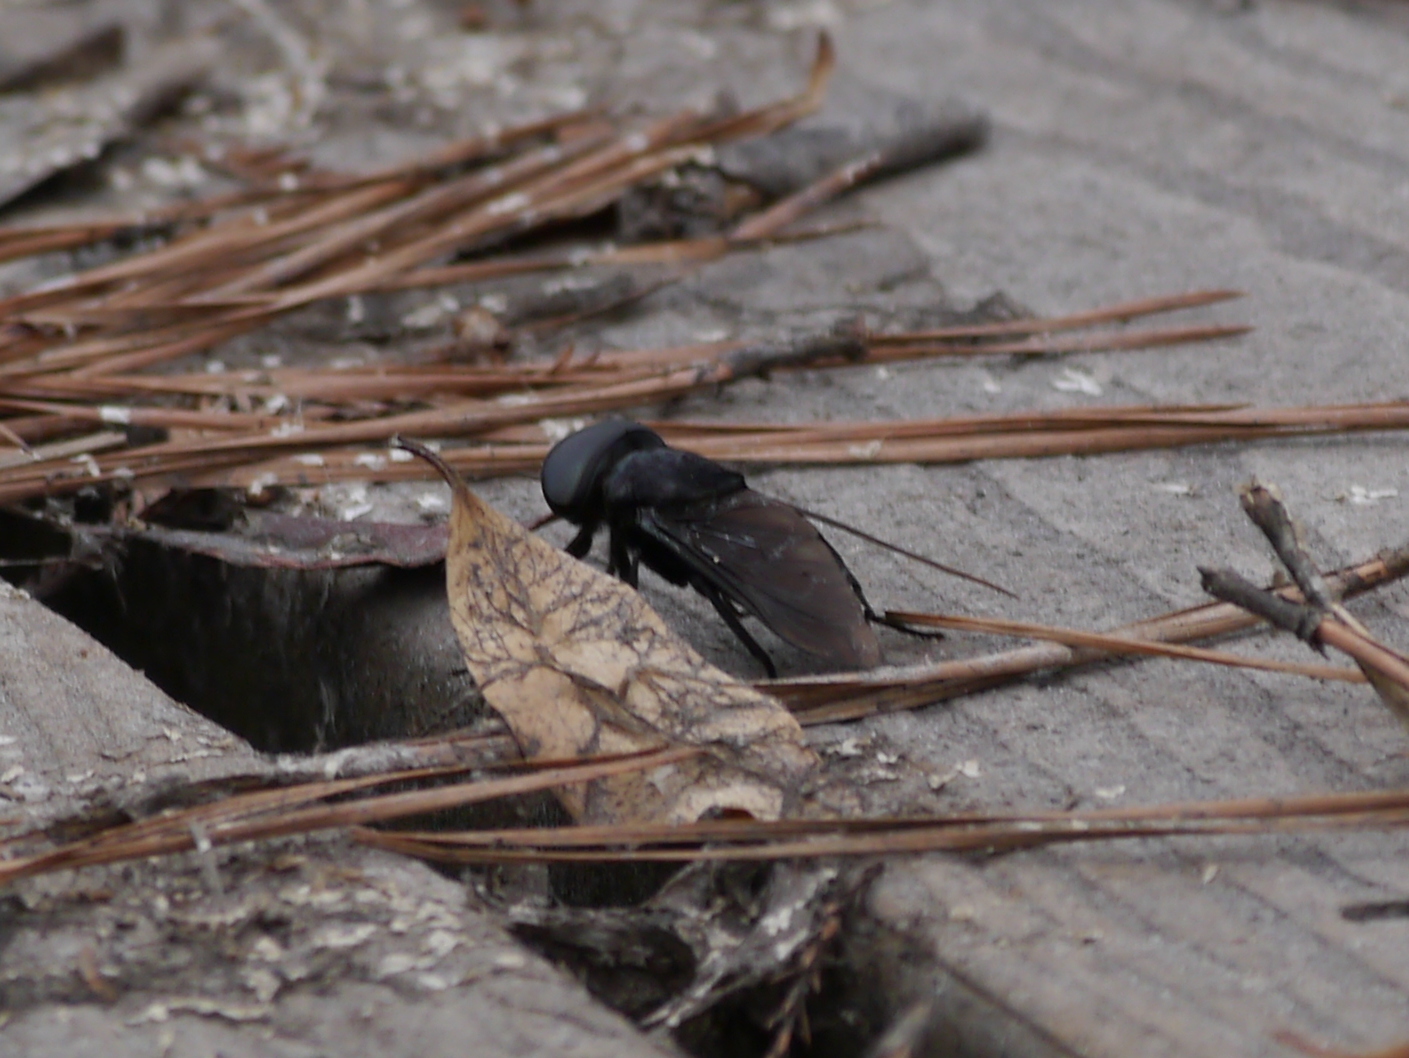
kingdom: Animalia
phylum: Arthropoda
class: Insecta
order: Diptera
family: Tabanidae
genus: Tabanus
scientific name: Tabanus atratus
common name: Black horse fly
